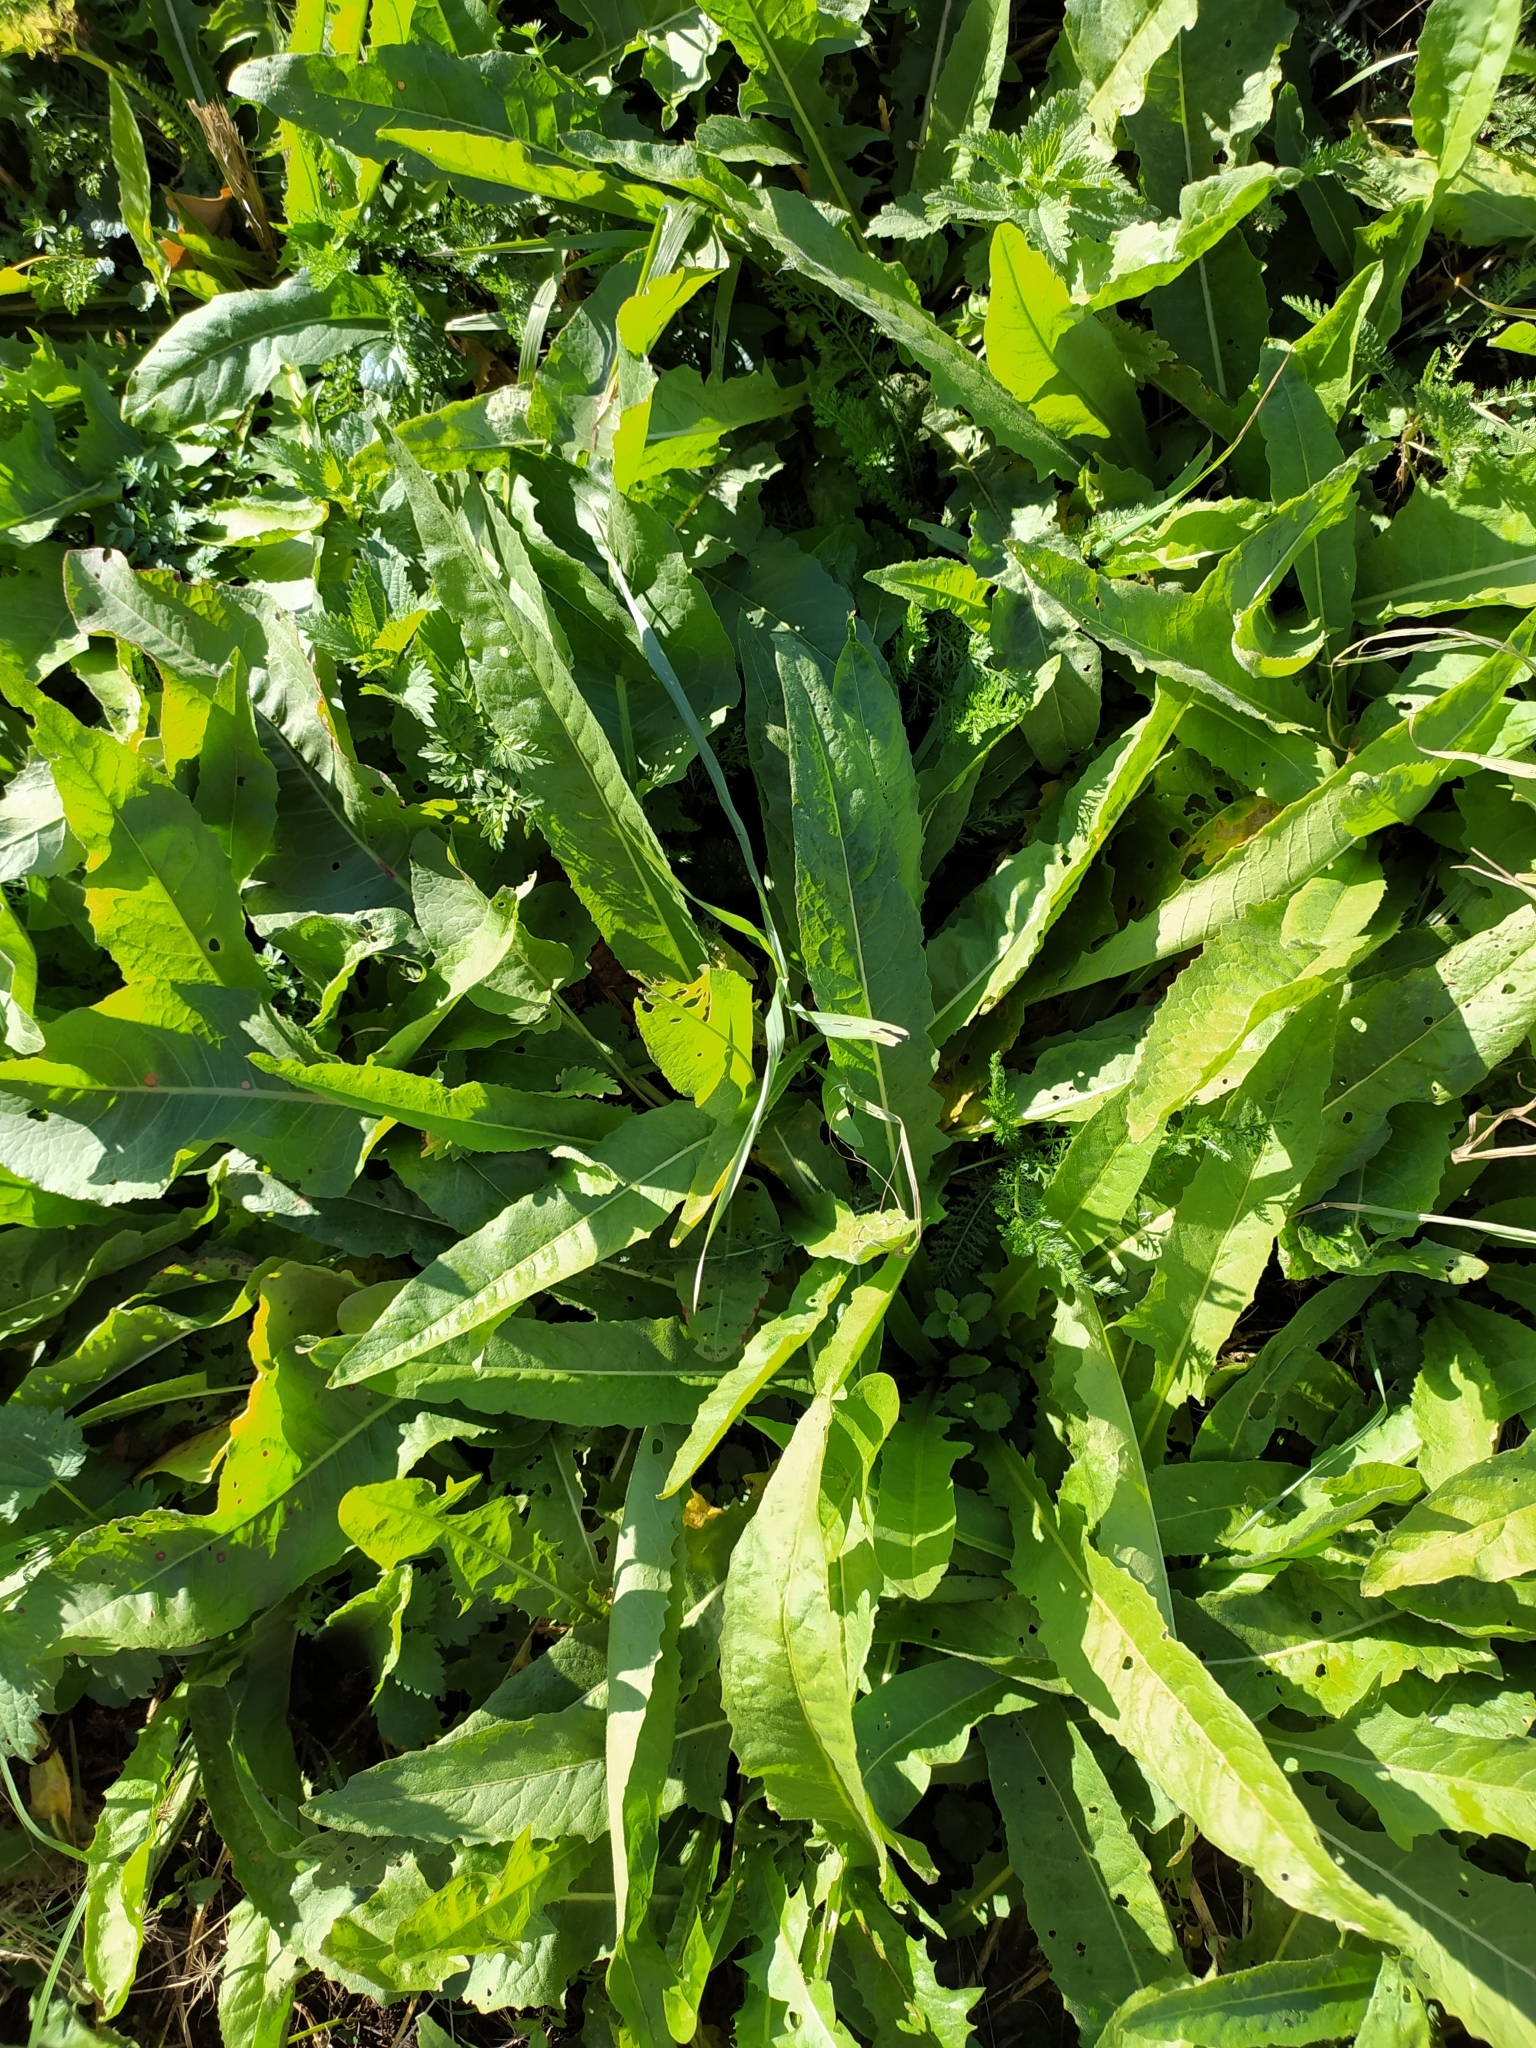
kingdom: Plantae
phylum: Tracheophyta
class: Magnoliopsida
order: Brassicales
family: Brassicaceae
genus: Bunias
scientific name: Bunias orientalis
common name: Warty-cabbage
